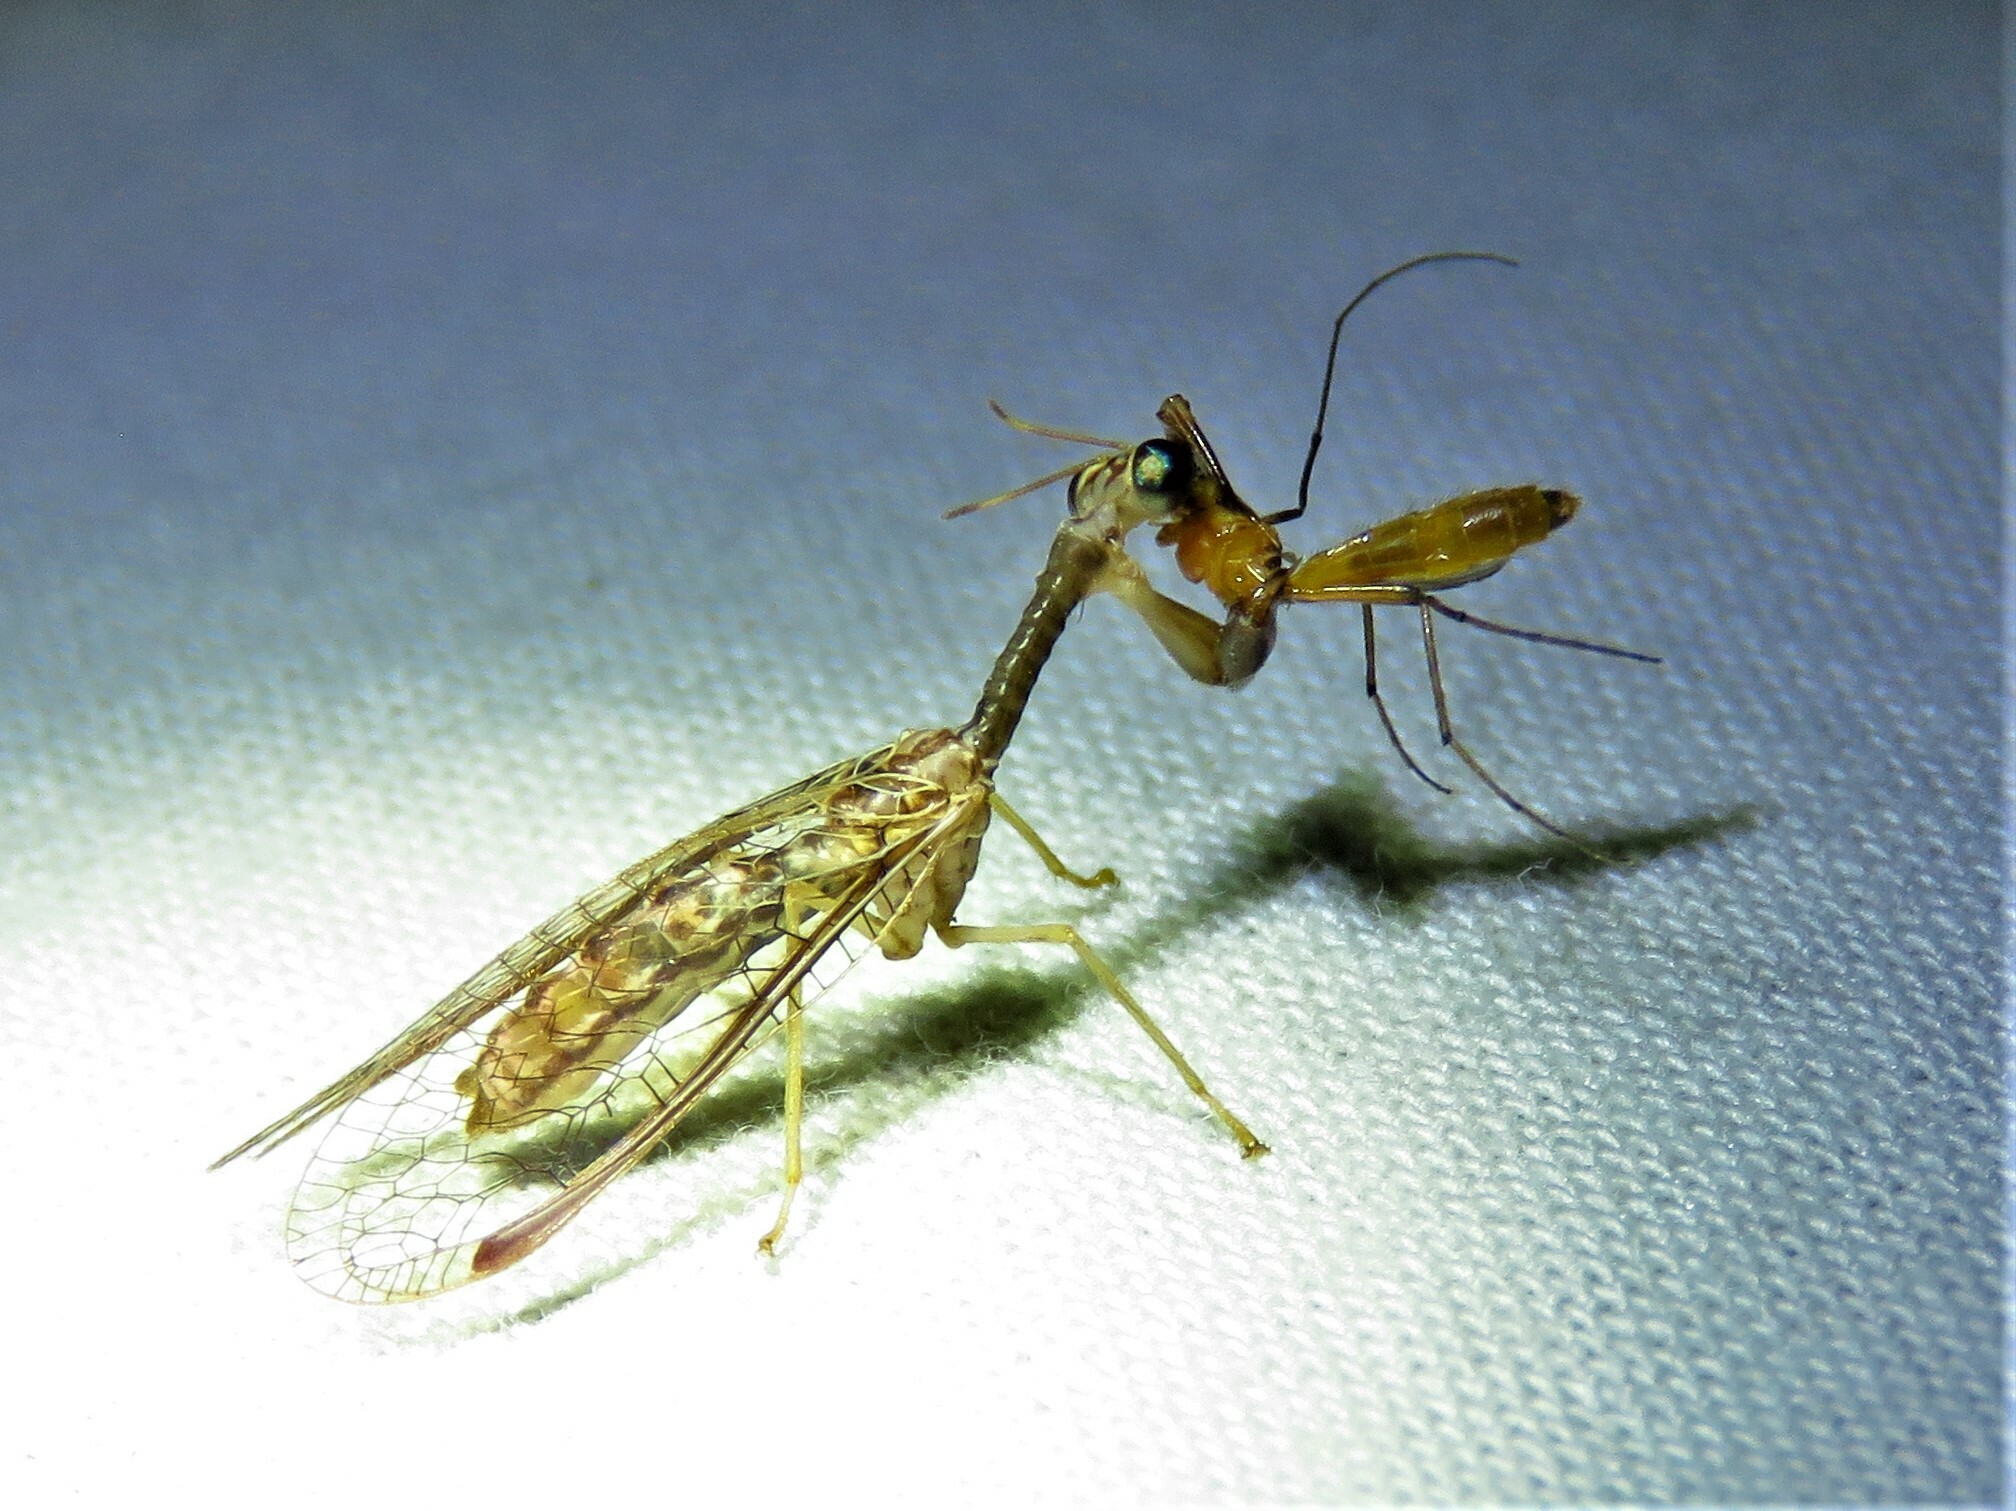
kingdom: Animalia
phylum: Arthropoda
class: Insecta
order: Neuroptera
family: Mantispidae
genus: Dicromantispa
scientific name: Dicromantispa sayi
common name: Say's mantidfly
